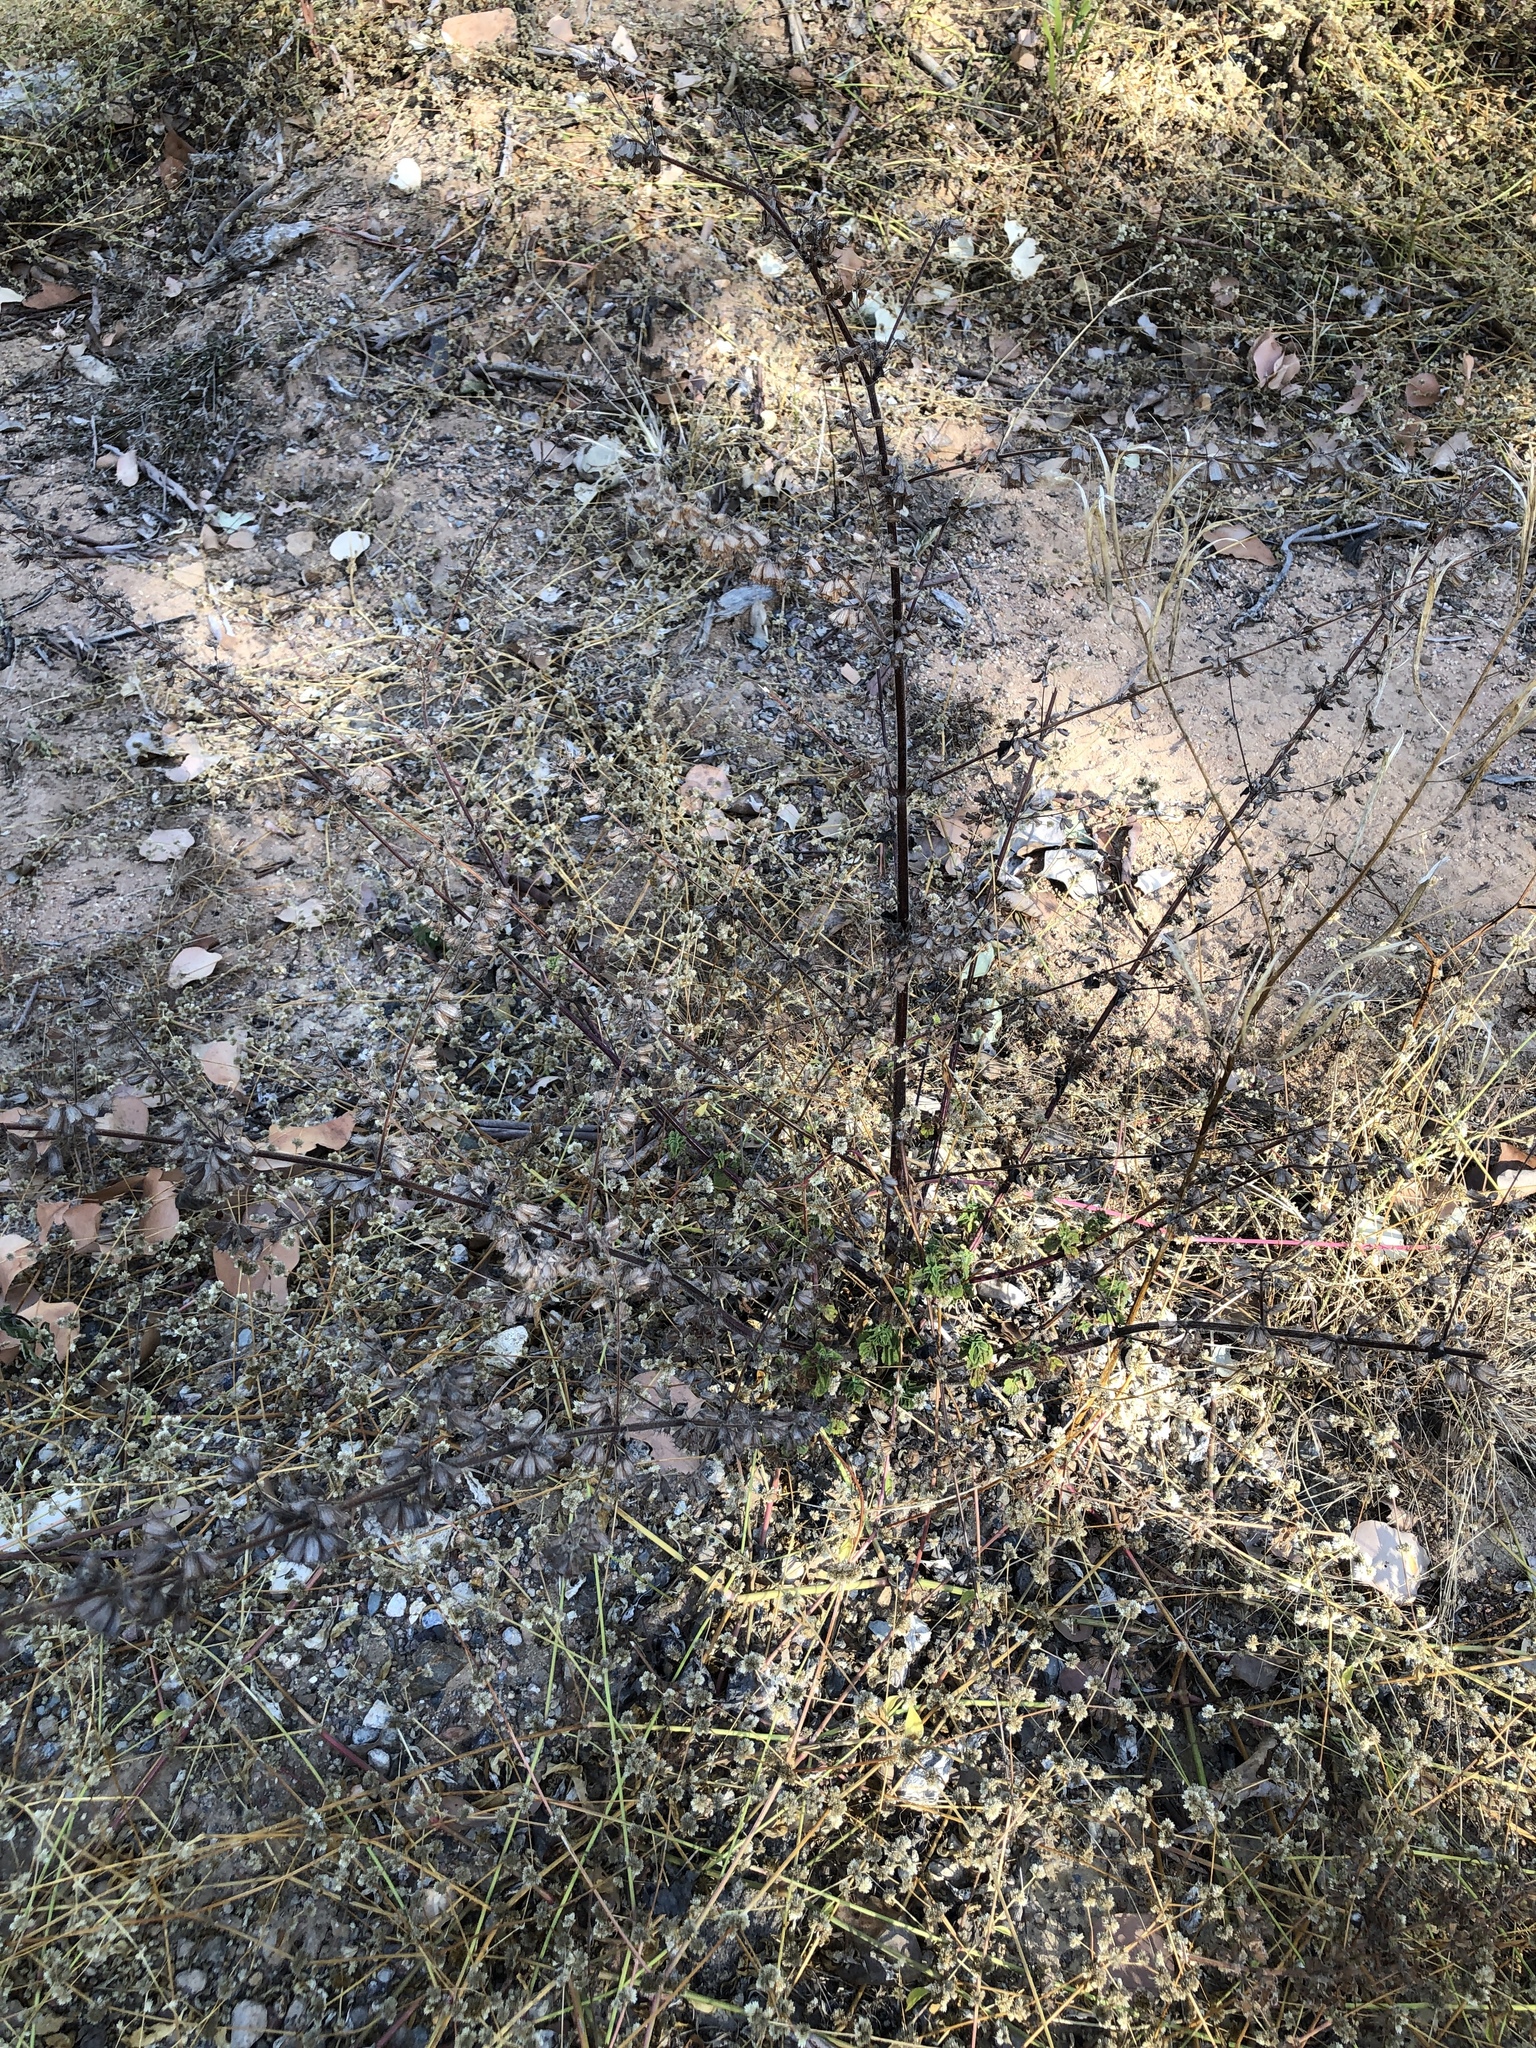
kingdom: Plantae
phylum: Tracheophyta
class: Magnoliopsida
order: Lamiales
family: Lamiaceae
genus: Mesosphaerum
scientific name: Mesosphaerum suaveolens
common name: Pignut
